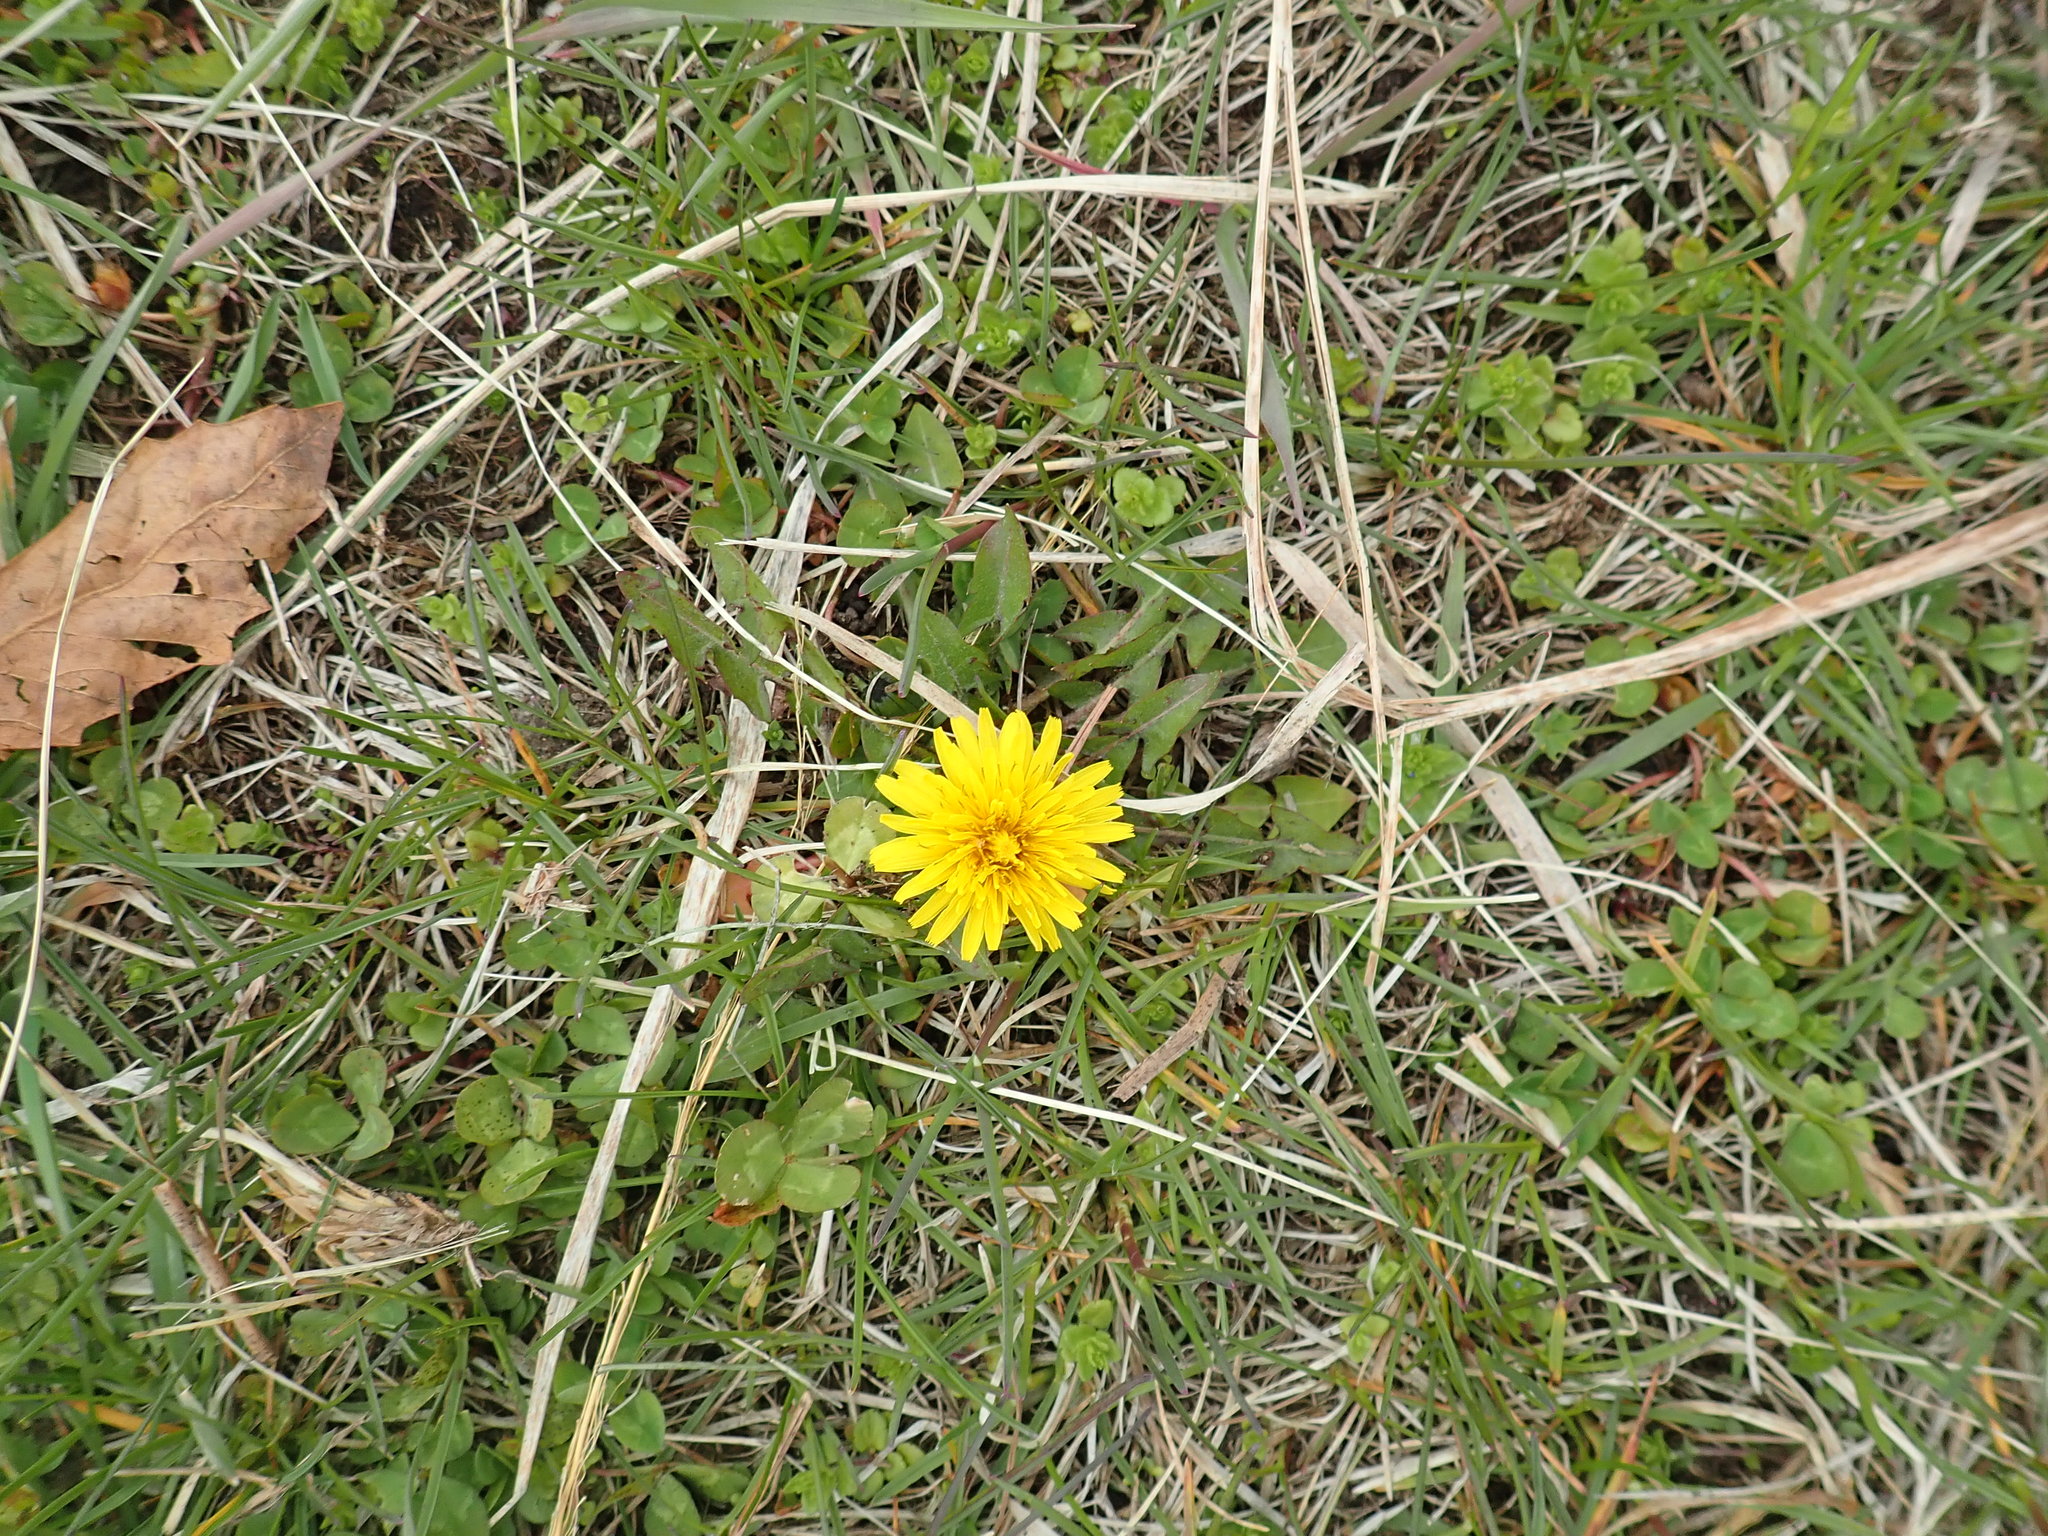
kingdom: Plantae
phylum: Tracheophyta
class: Magnoliopsida
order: Asterales
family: Asteraceae
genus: Taraxacum
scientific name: Taraxacum officinale
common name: Common dandelion
